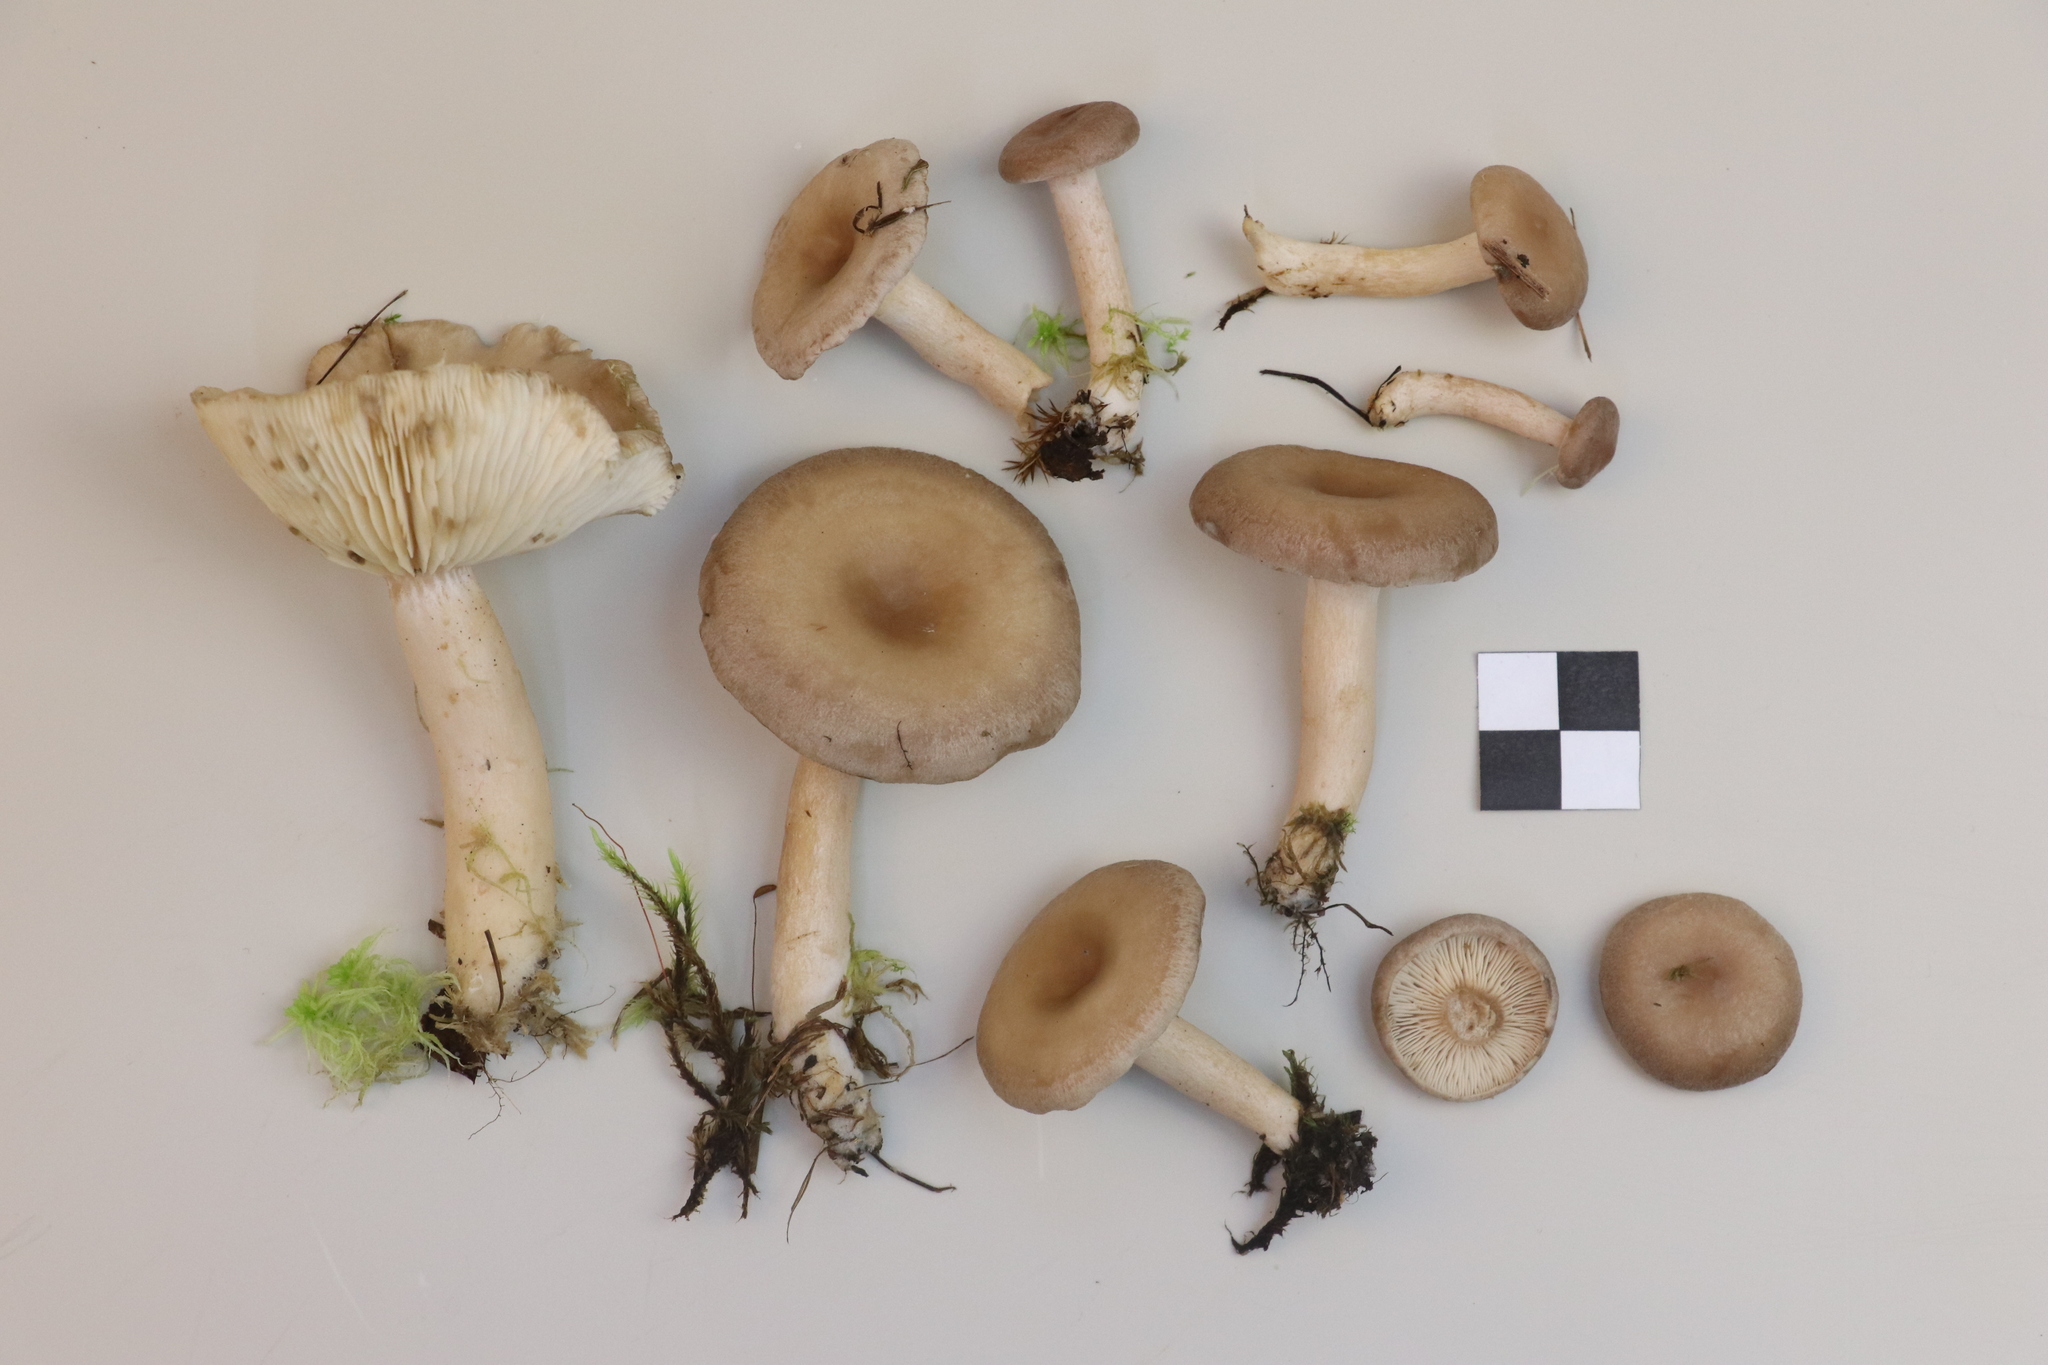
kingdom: Fungi
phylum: Basidiomycota
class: Agaricomycetes
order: Russulales
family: Russulaceae
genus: Lactarius
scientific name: Lactarius vietus
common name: Grey milk-cap
